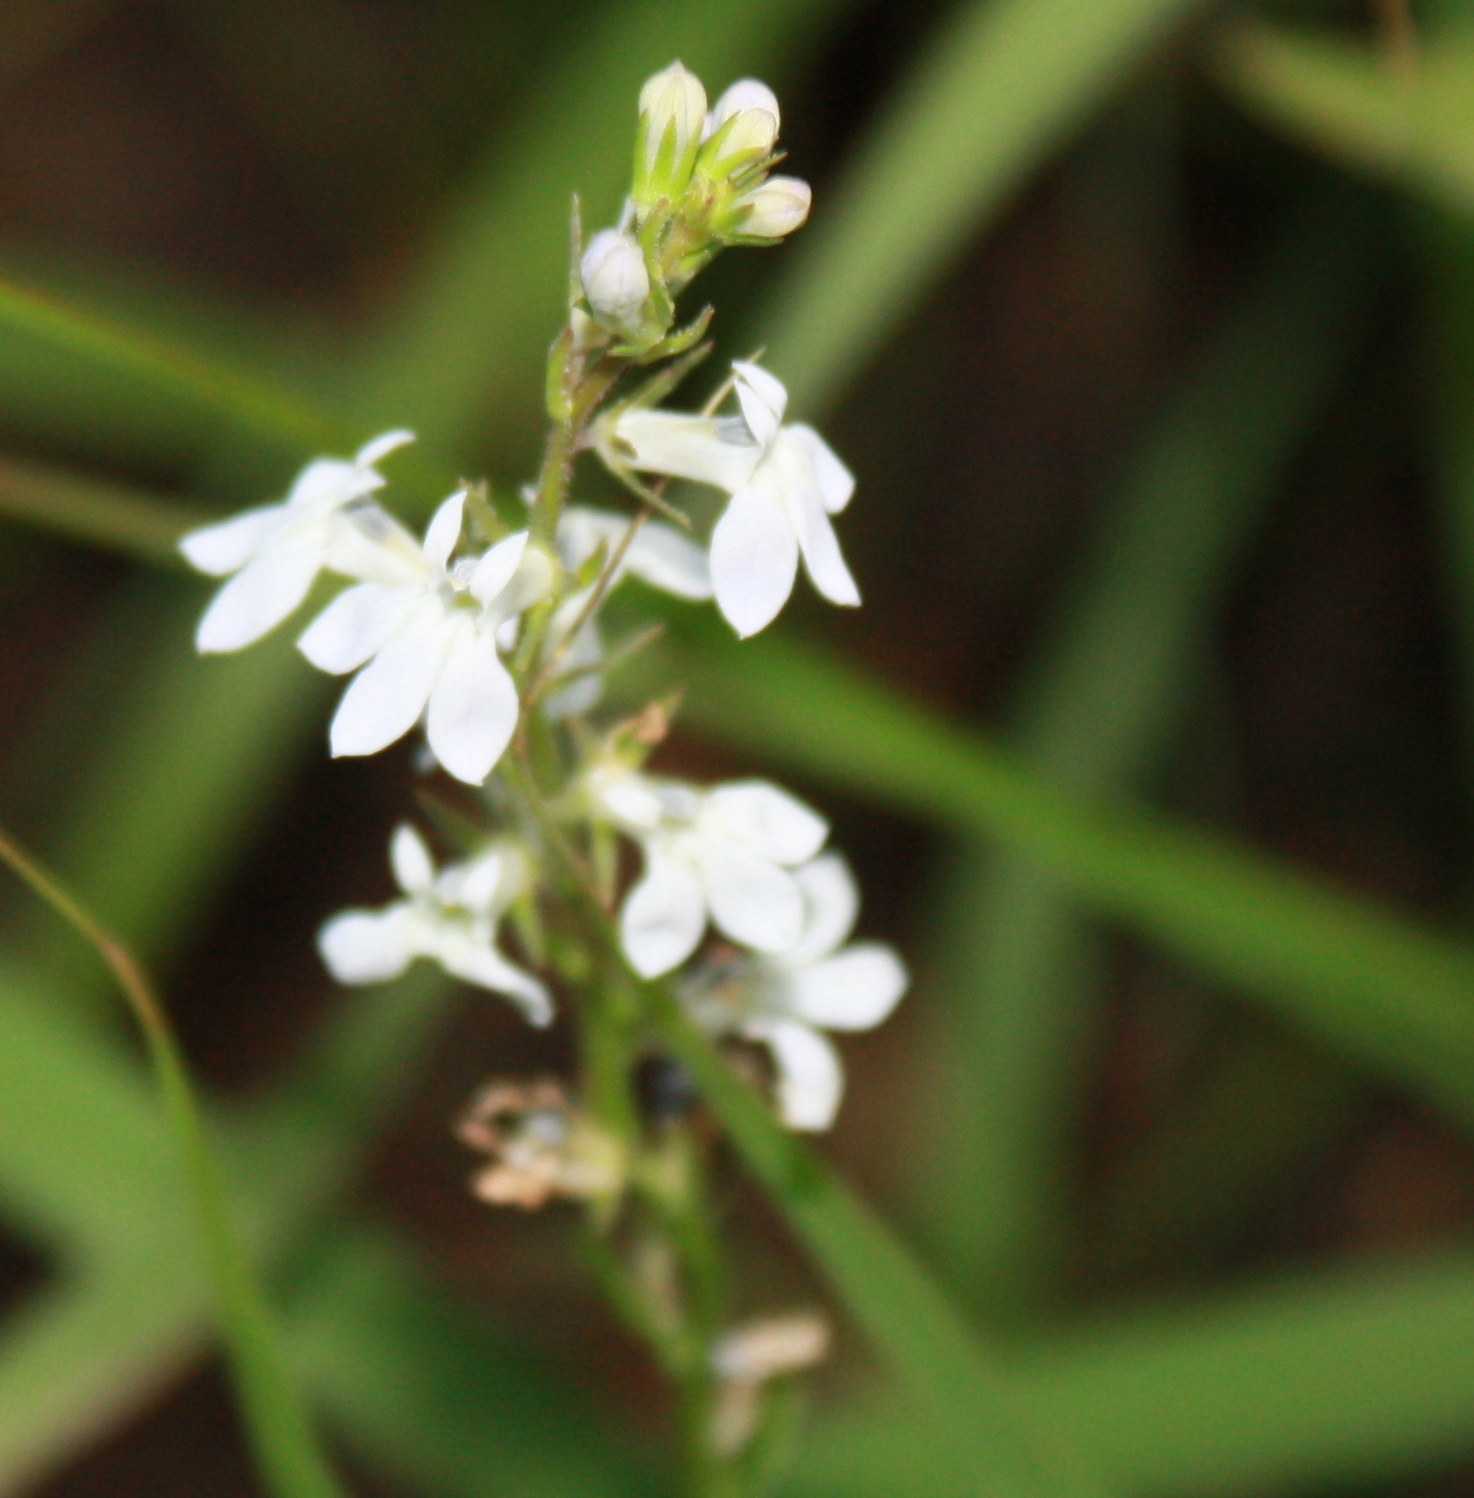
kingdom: Plantae
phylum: Tracheophyta
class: Magnoliopsida
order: Asterales
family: Campanulaceae
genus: Lobelia
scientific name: Lobelia spicata
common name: Pale-spike lobelia
